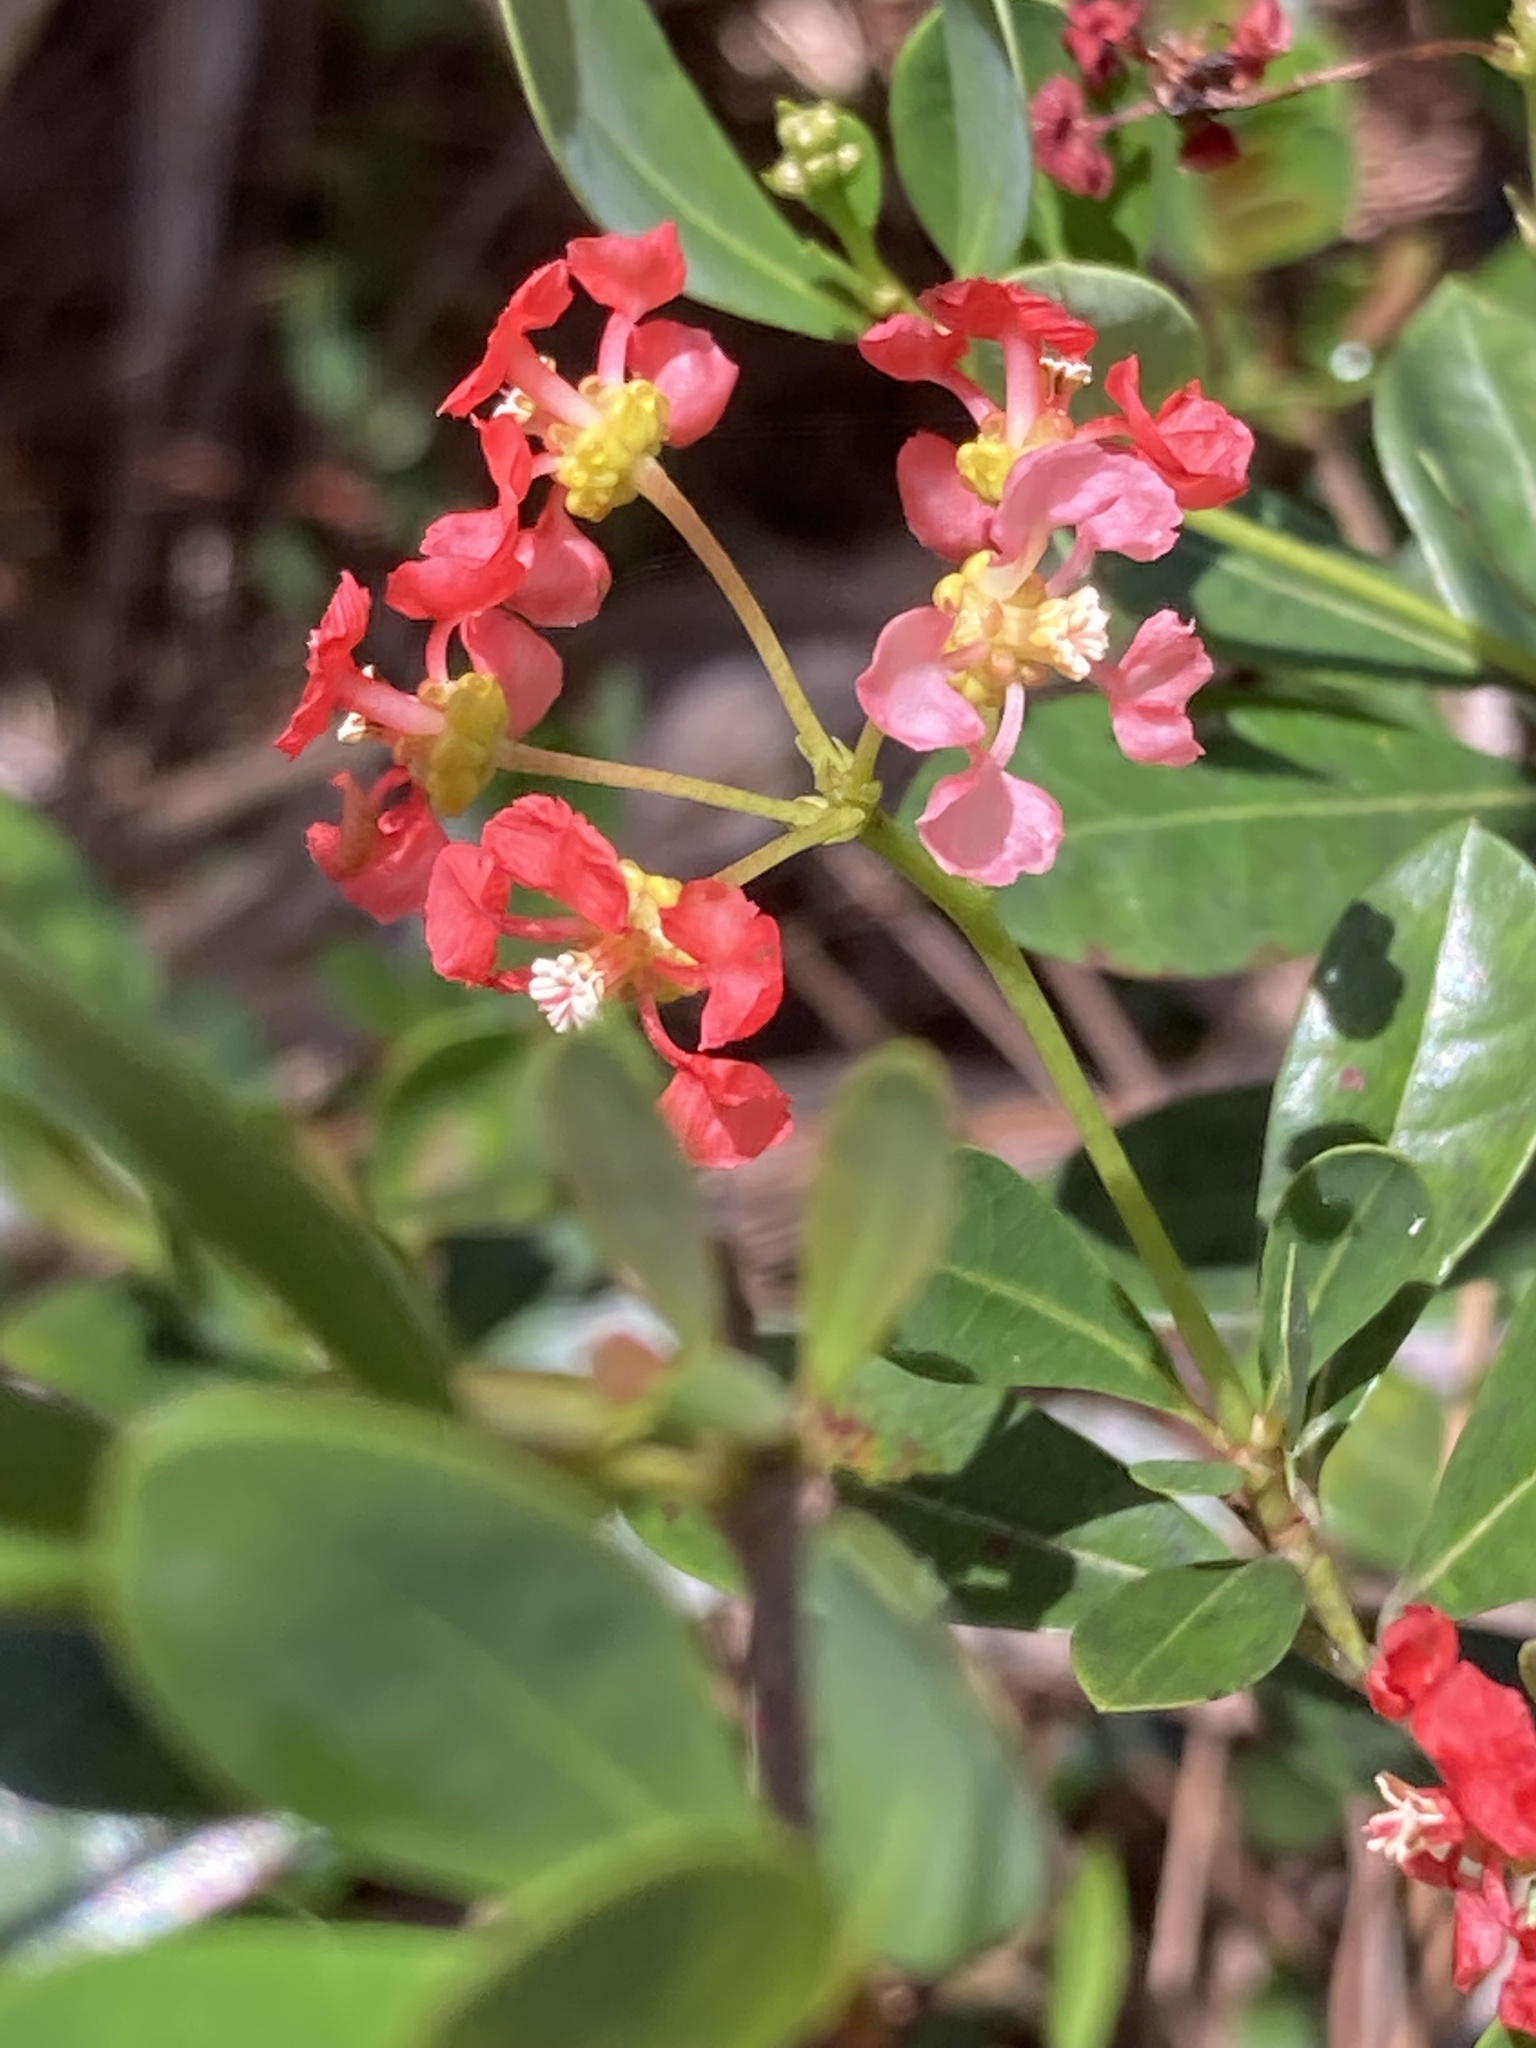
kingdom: Plantae
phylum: Tracheophyta
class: Magnoliopsida
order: Malpighiales
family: Malpighiaceae
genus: Byrsonima
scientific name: Byrsonima lucida
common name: Clam-cherry
